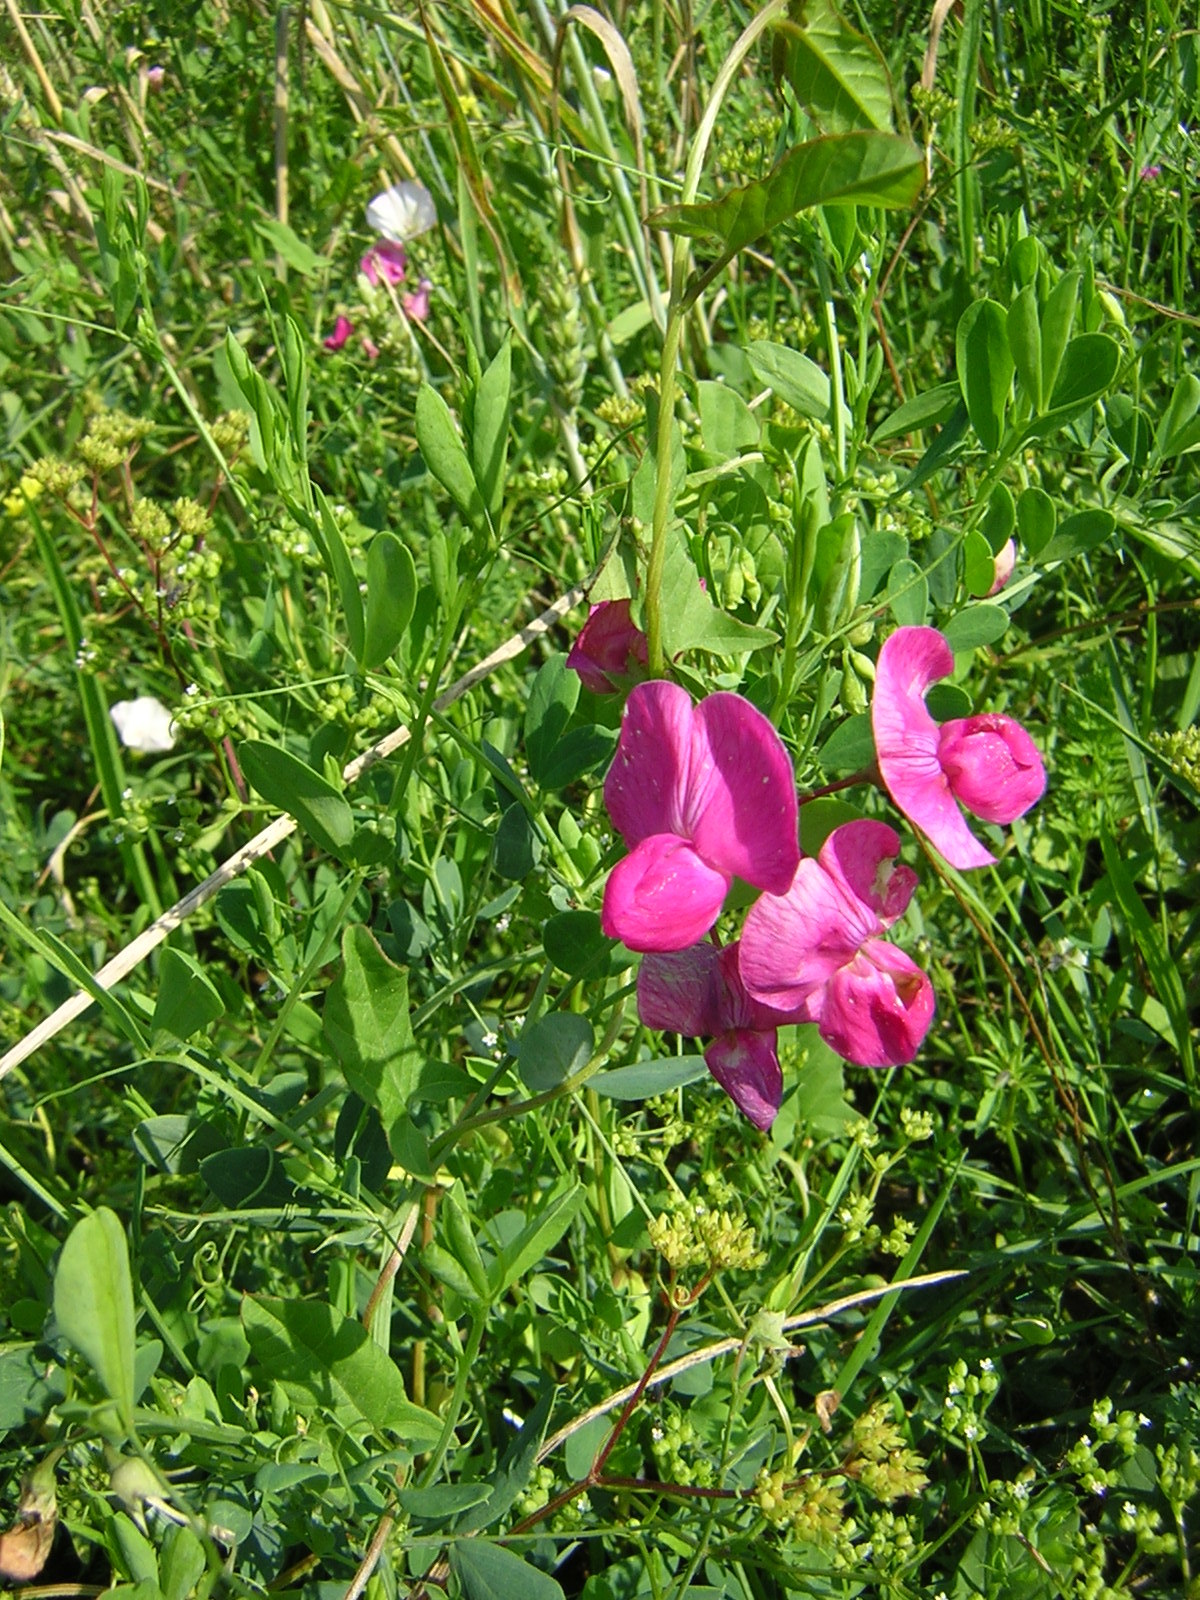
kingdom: Plantae
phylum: Tracheophyta
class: Magnoliopsida
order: Fabales
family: Fabaceae
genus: Lathyrus
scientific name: Lathyrus tuberosus
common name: Tuberous pea
